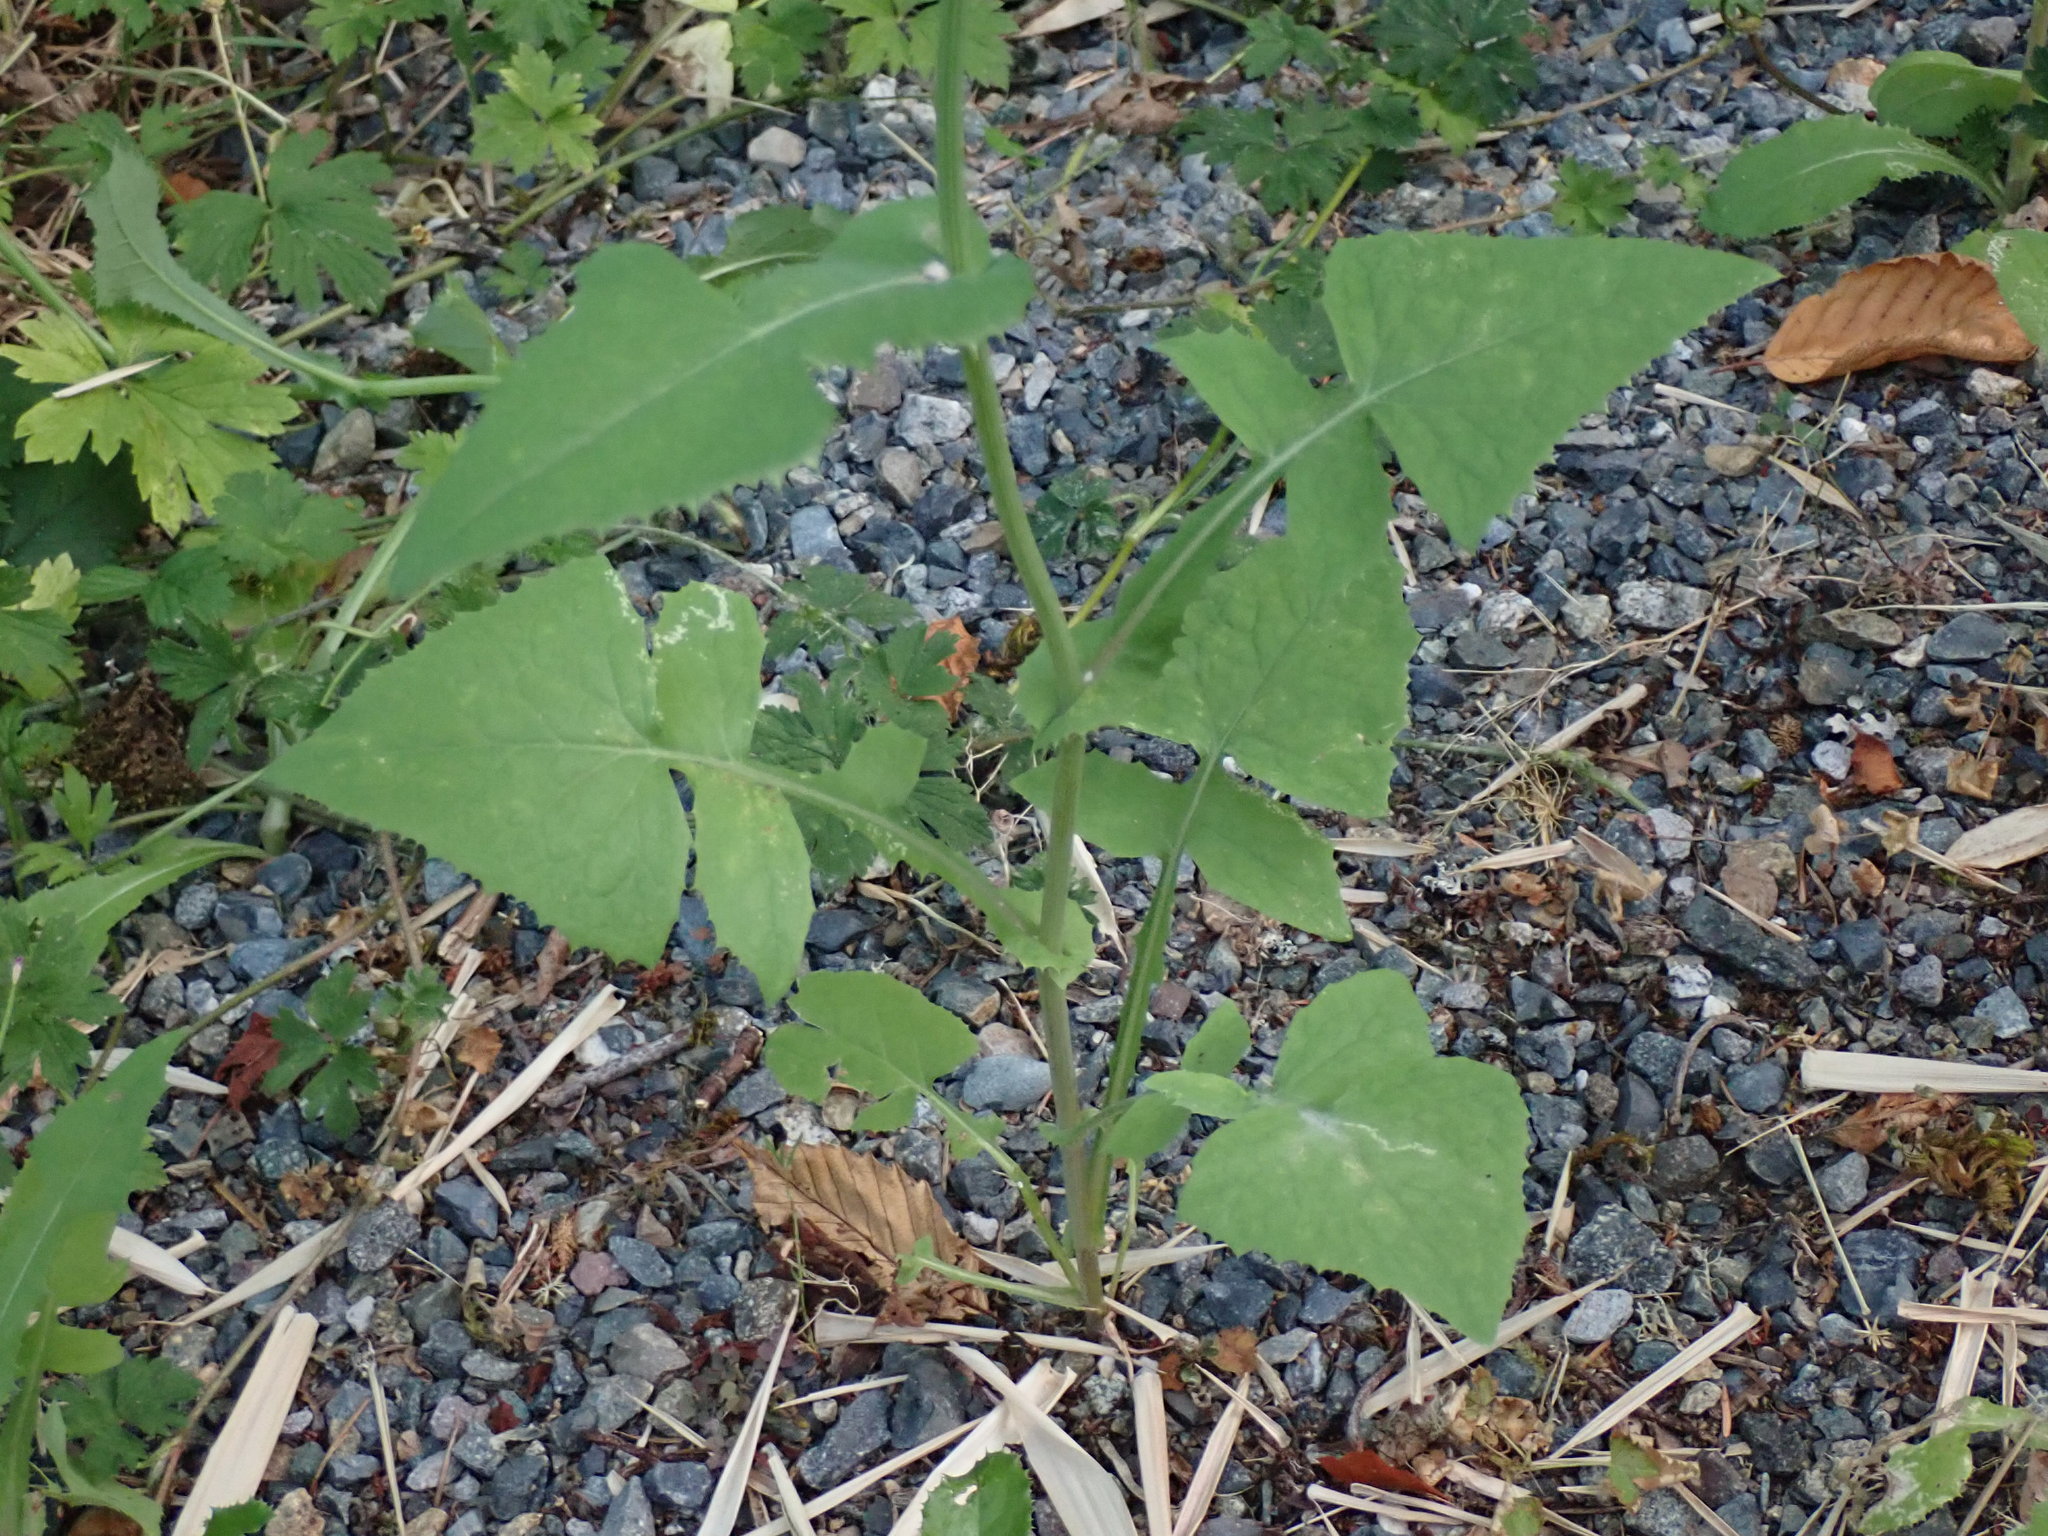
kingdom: Plantae
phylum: Tracheophyta
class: Magnoliopsida
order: Asterales
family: Asteraceae
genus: Sonchus
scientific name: Sonchus oleraceus
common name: Common sowthistle
